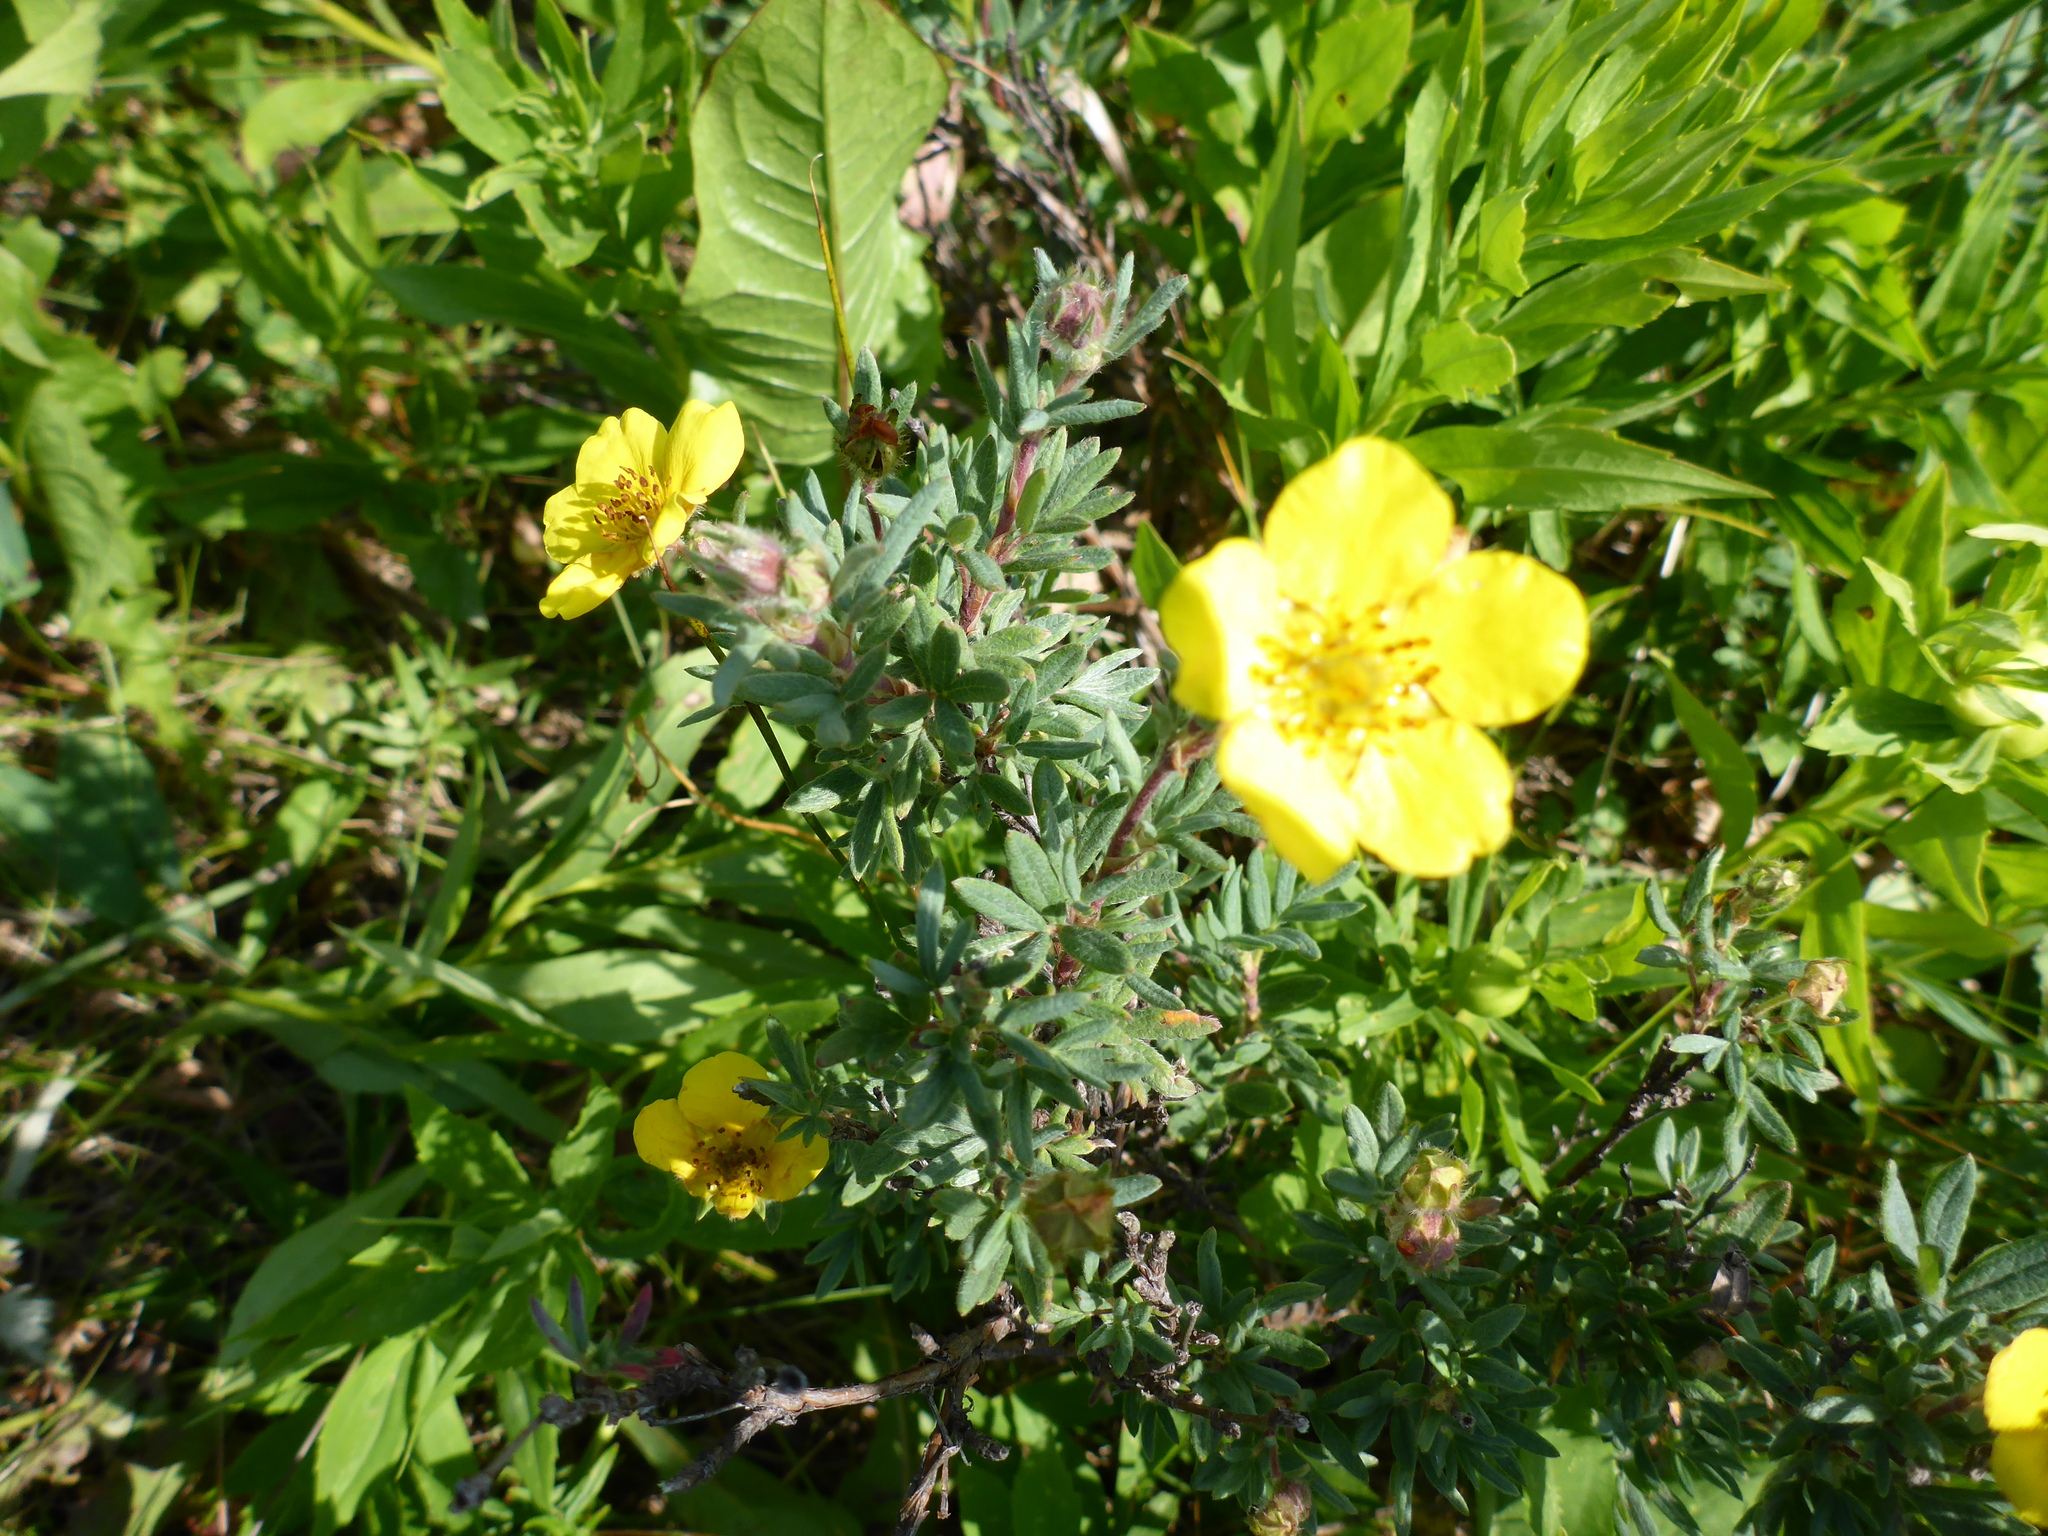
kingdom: Plantae
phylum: Tracheophyta
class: Magnoliopsida
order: Rosales
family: Rosaceae
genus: Dasiphora
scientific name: Dasiphora fruticosa
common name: Shrubby cinquefoil
